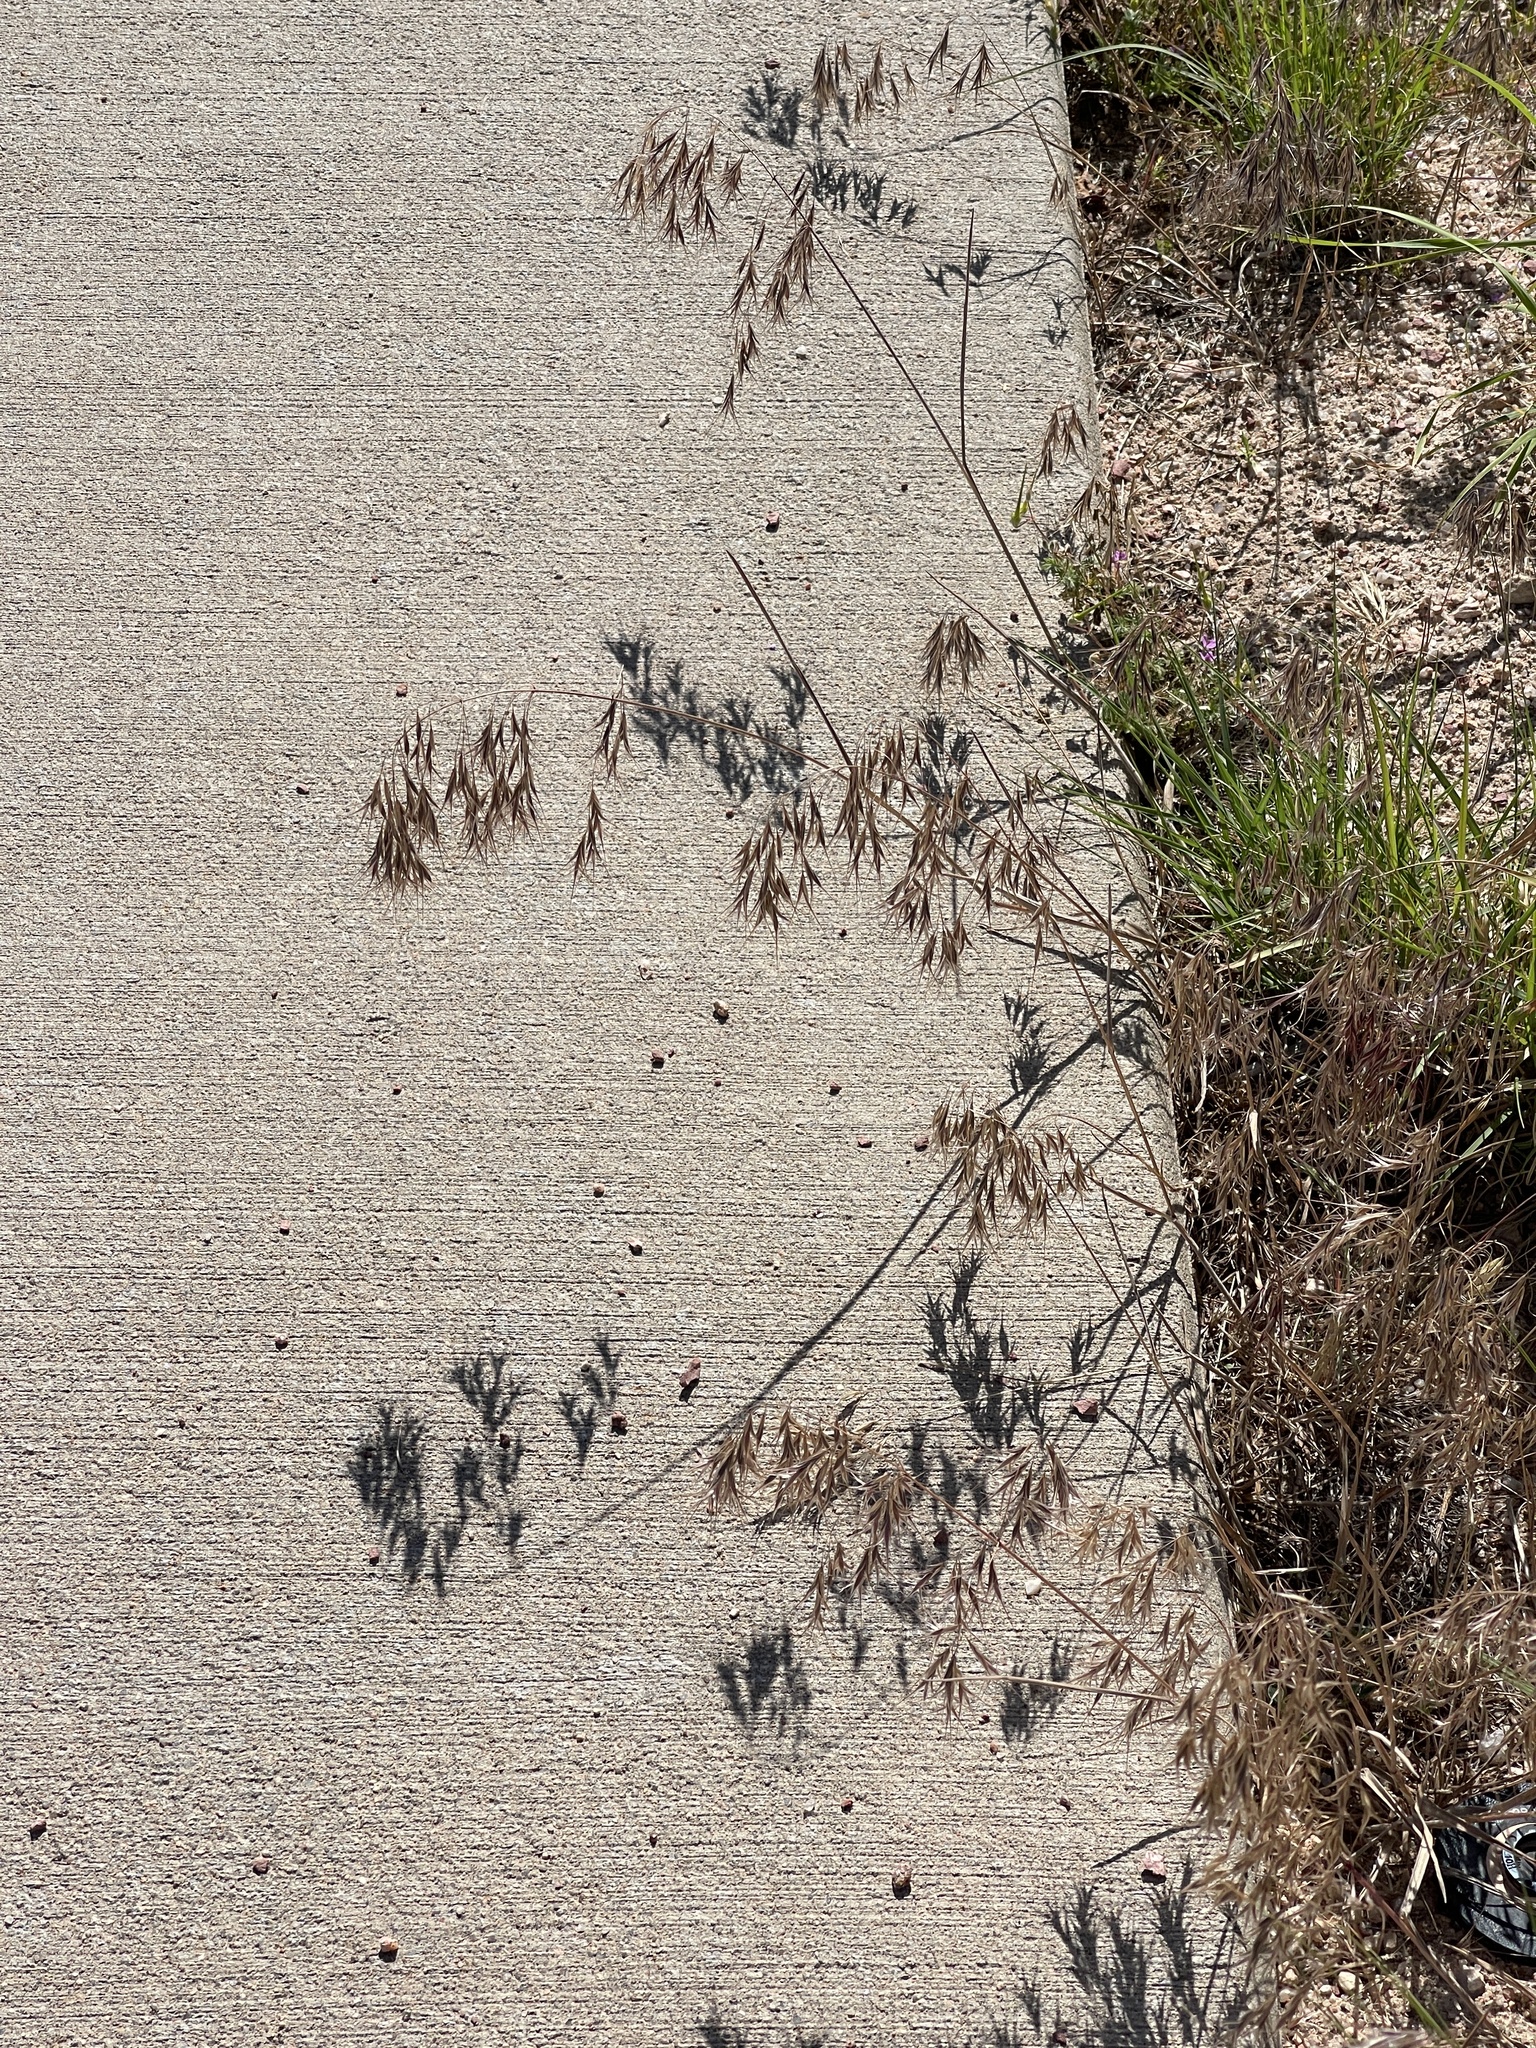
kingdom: Plantae
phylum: Tracheophyta
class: Liliopsida
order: Poales
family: Poaceae
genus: Bromus
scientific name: Bromus tectorum
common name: Cheatgrass
